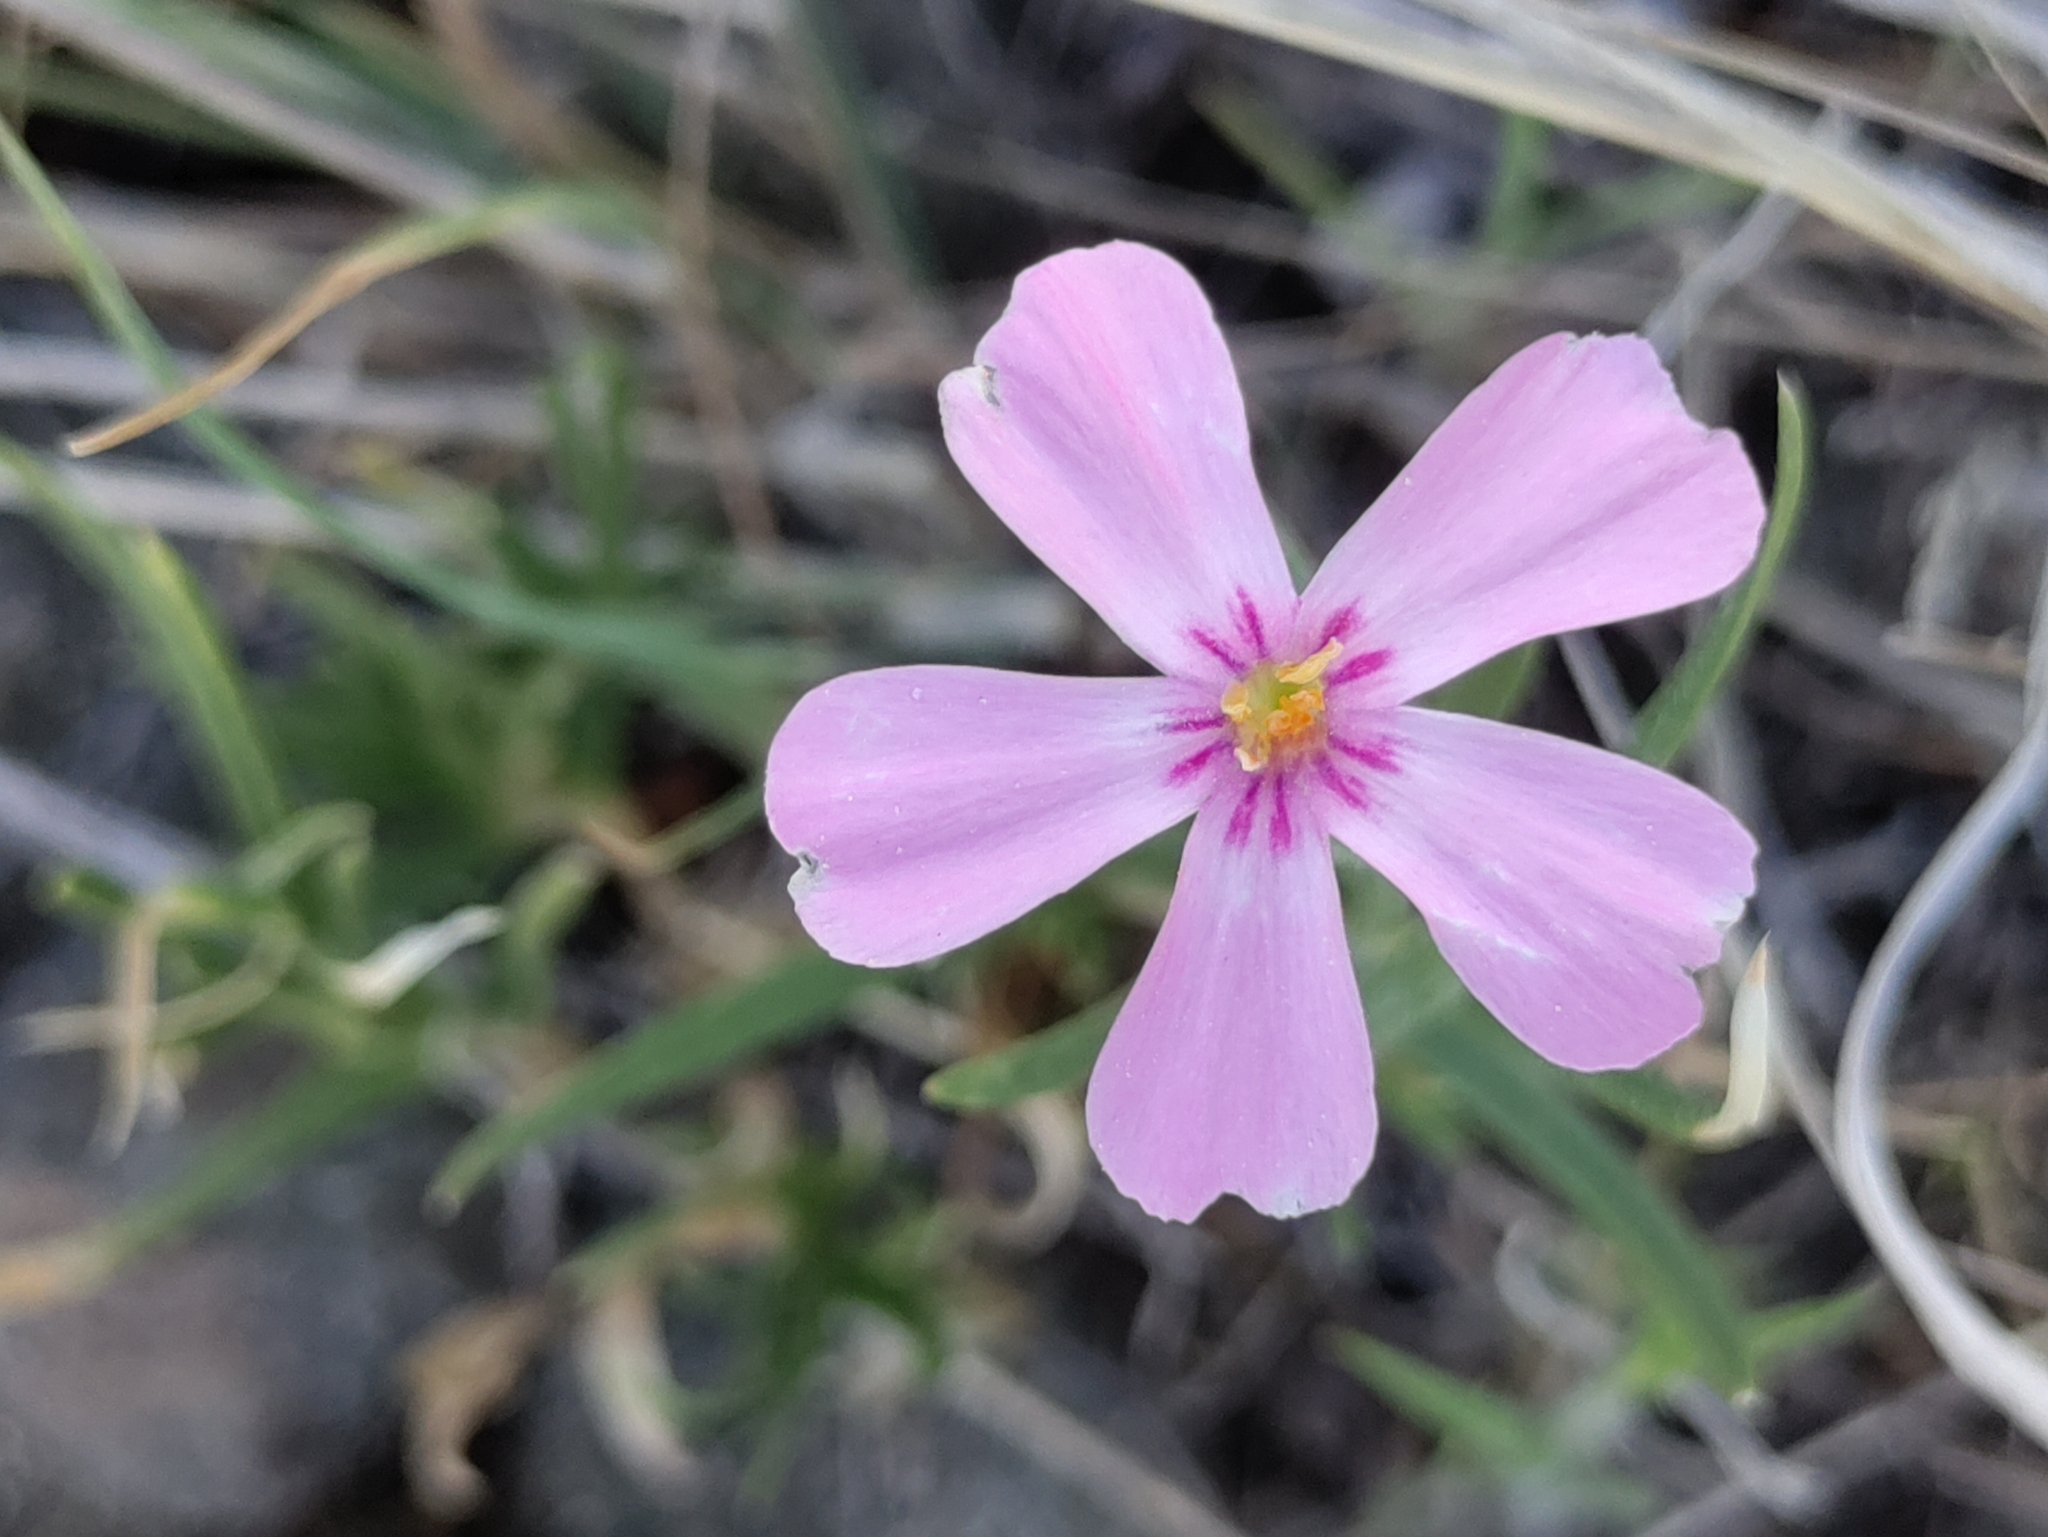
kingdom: Plantae
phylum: Tracheophyta
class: Magnoliopsida
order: Ericales
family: Polemoniaceae
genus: Phlox
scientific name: Phlox longifolia
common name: Longleaf phlox
